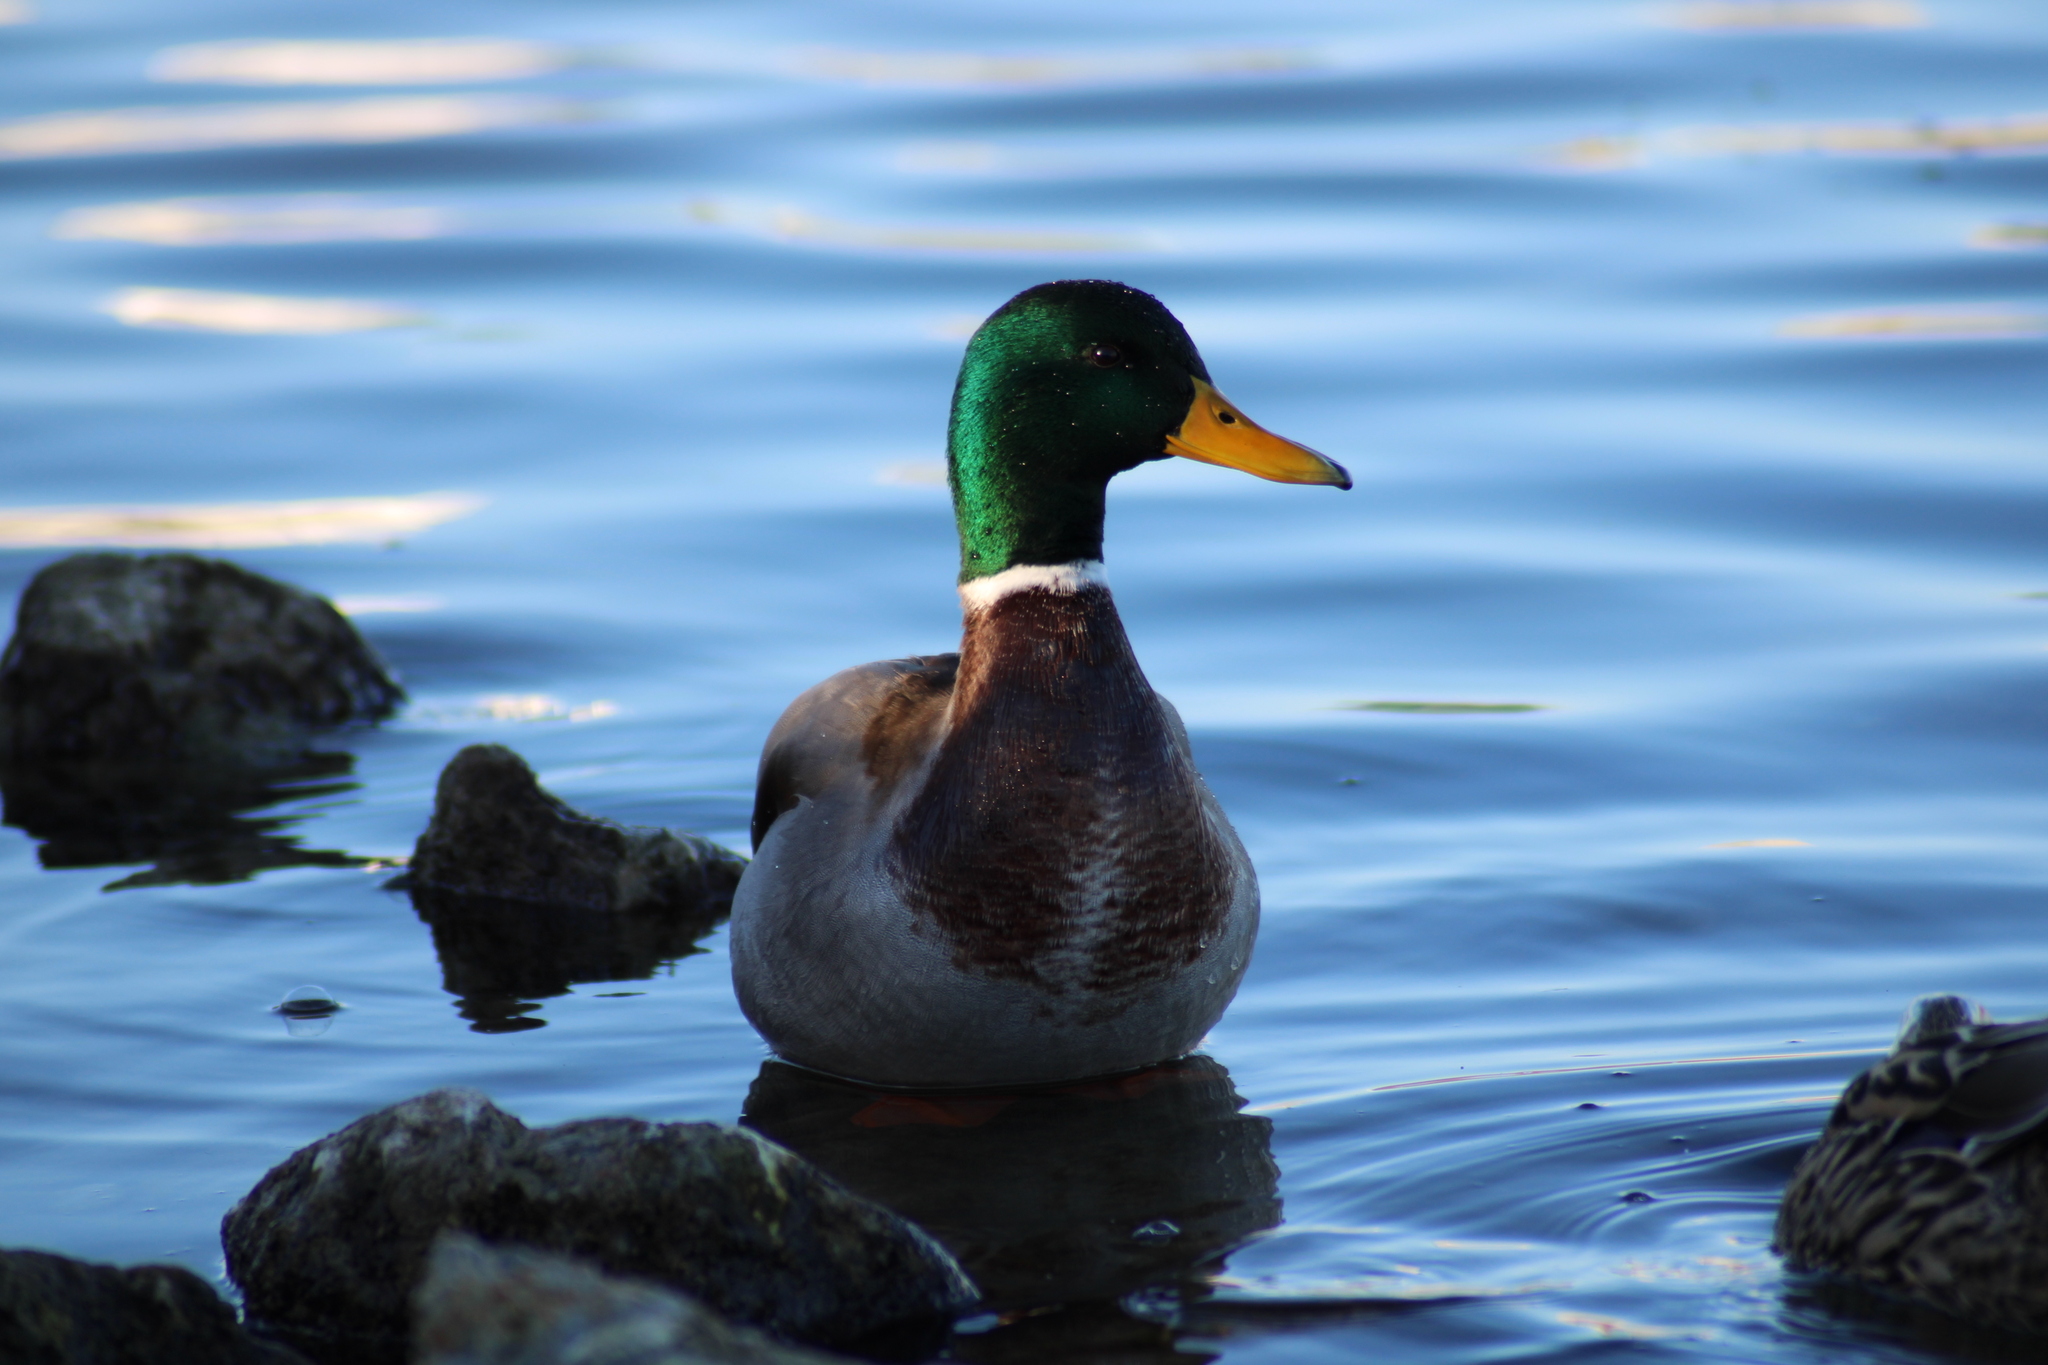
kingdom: Animalia
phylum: Chordata
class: Aves
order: Anseriformes
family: Anatidae
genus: Anas
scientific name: Anas platyrhynchos
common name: Mallard
